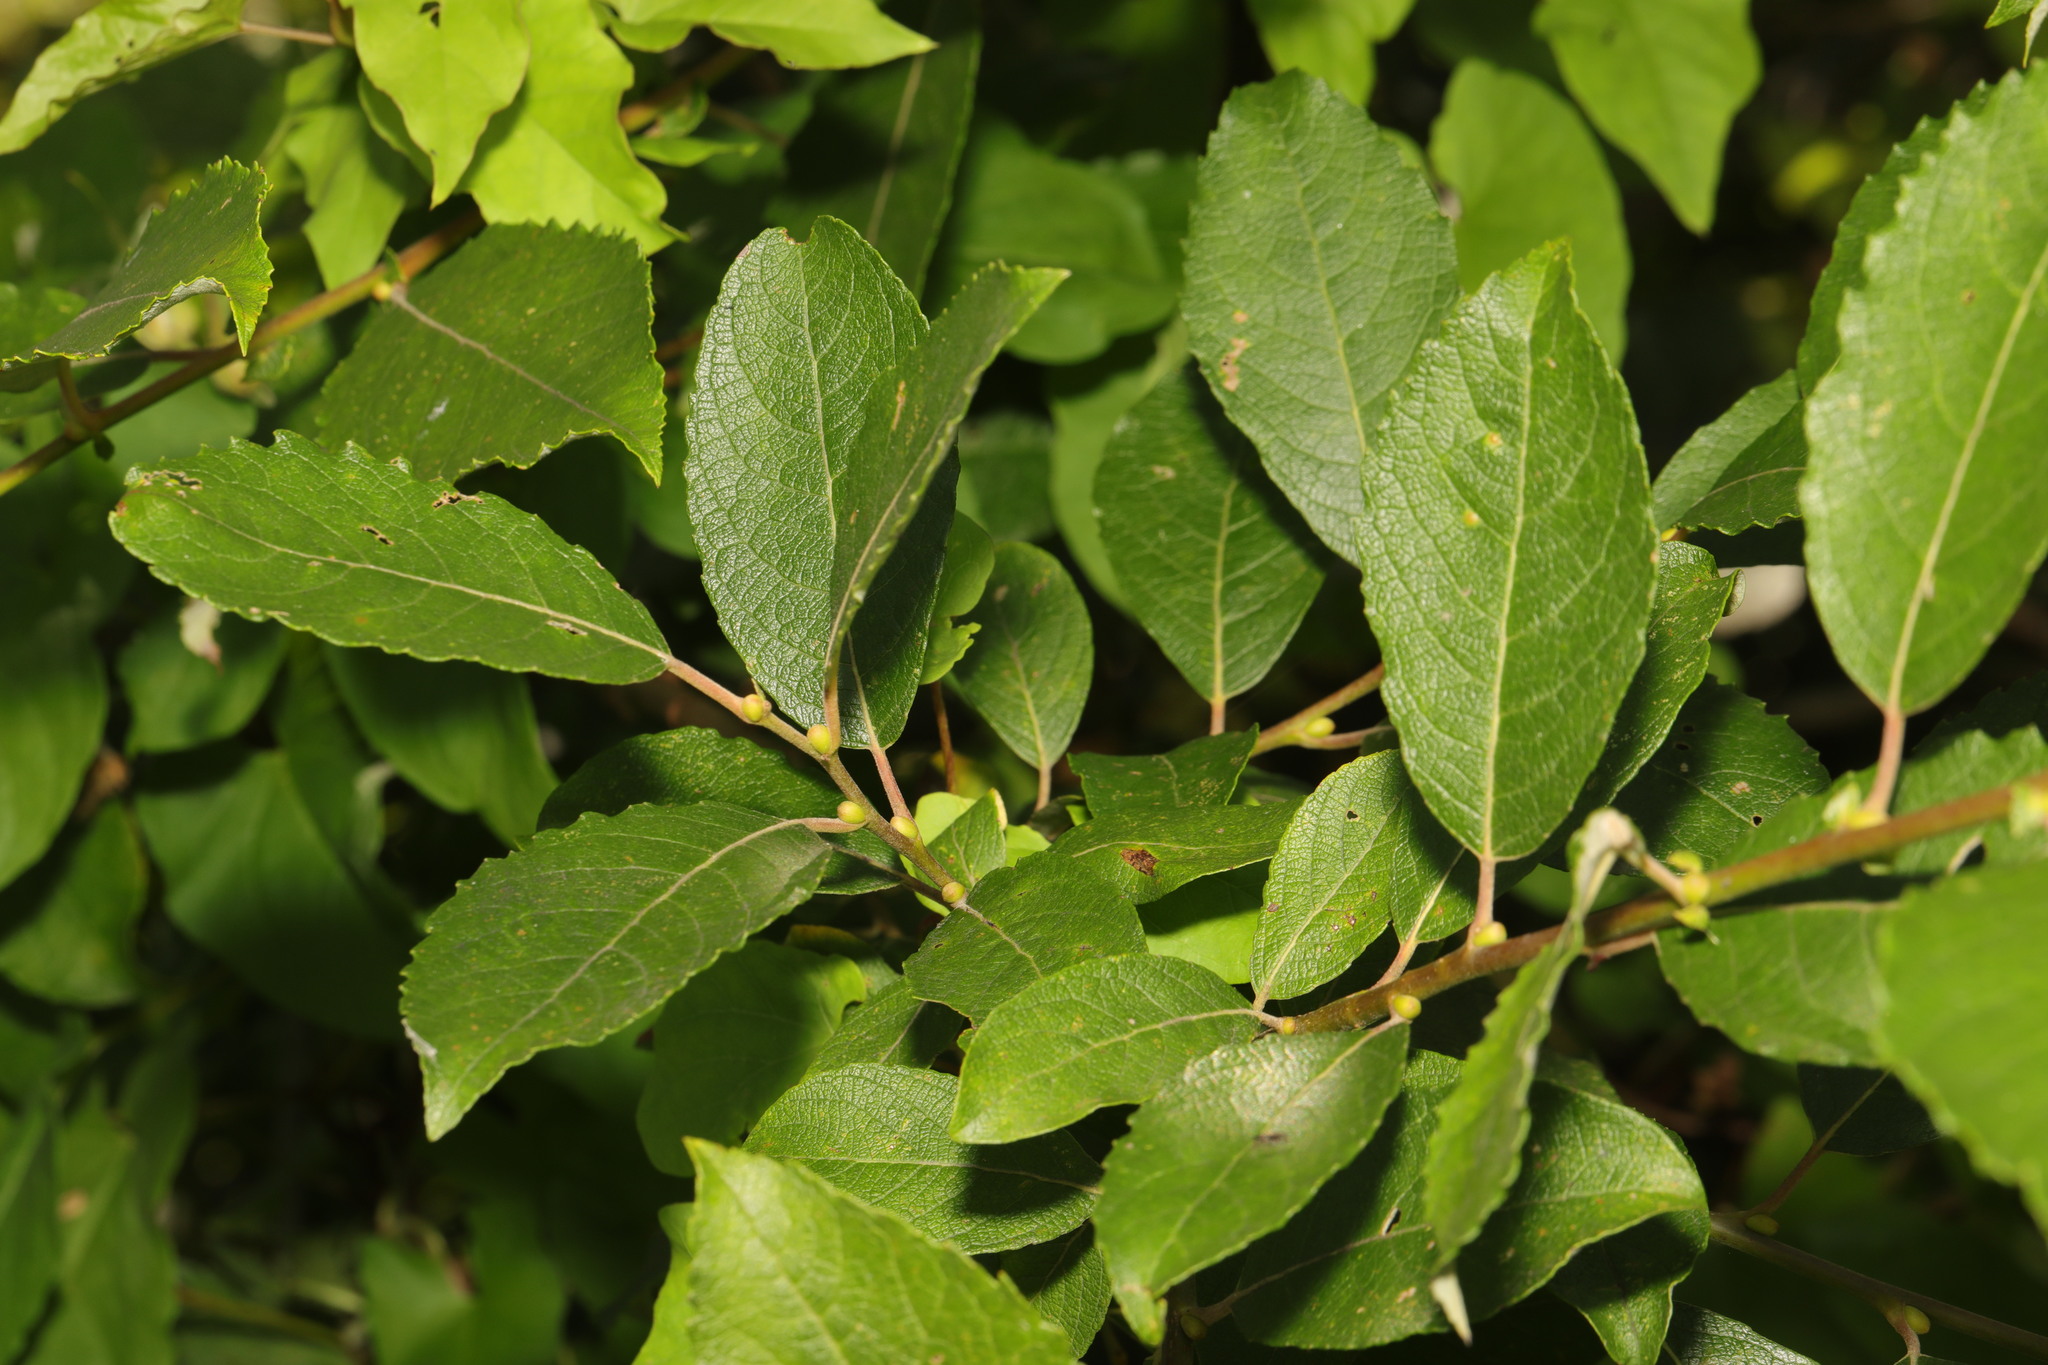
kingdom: Plantae
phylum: Tracheophyta
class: Magnoliopsida
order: Malpighiales
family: Salicaceae
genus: Salix
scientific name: Salix caprea
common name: Goat willow
